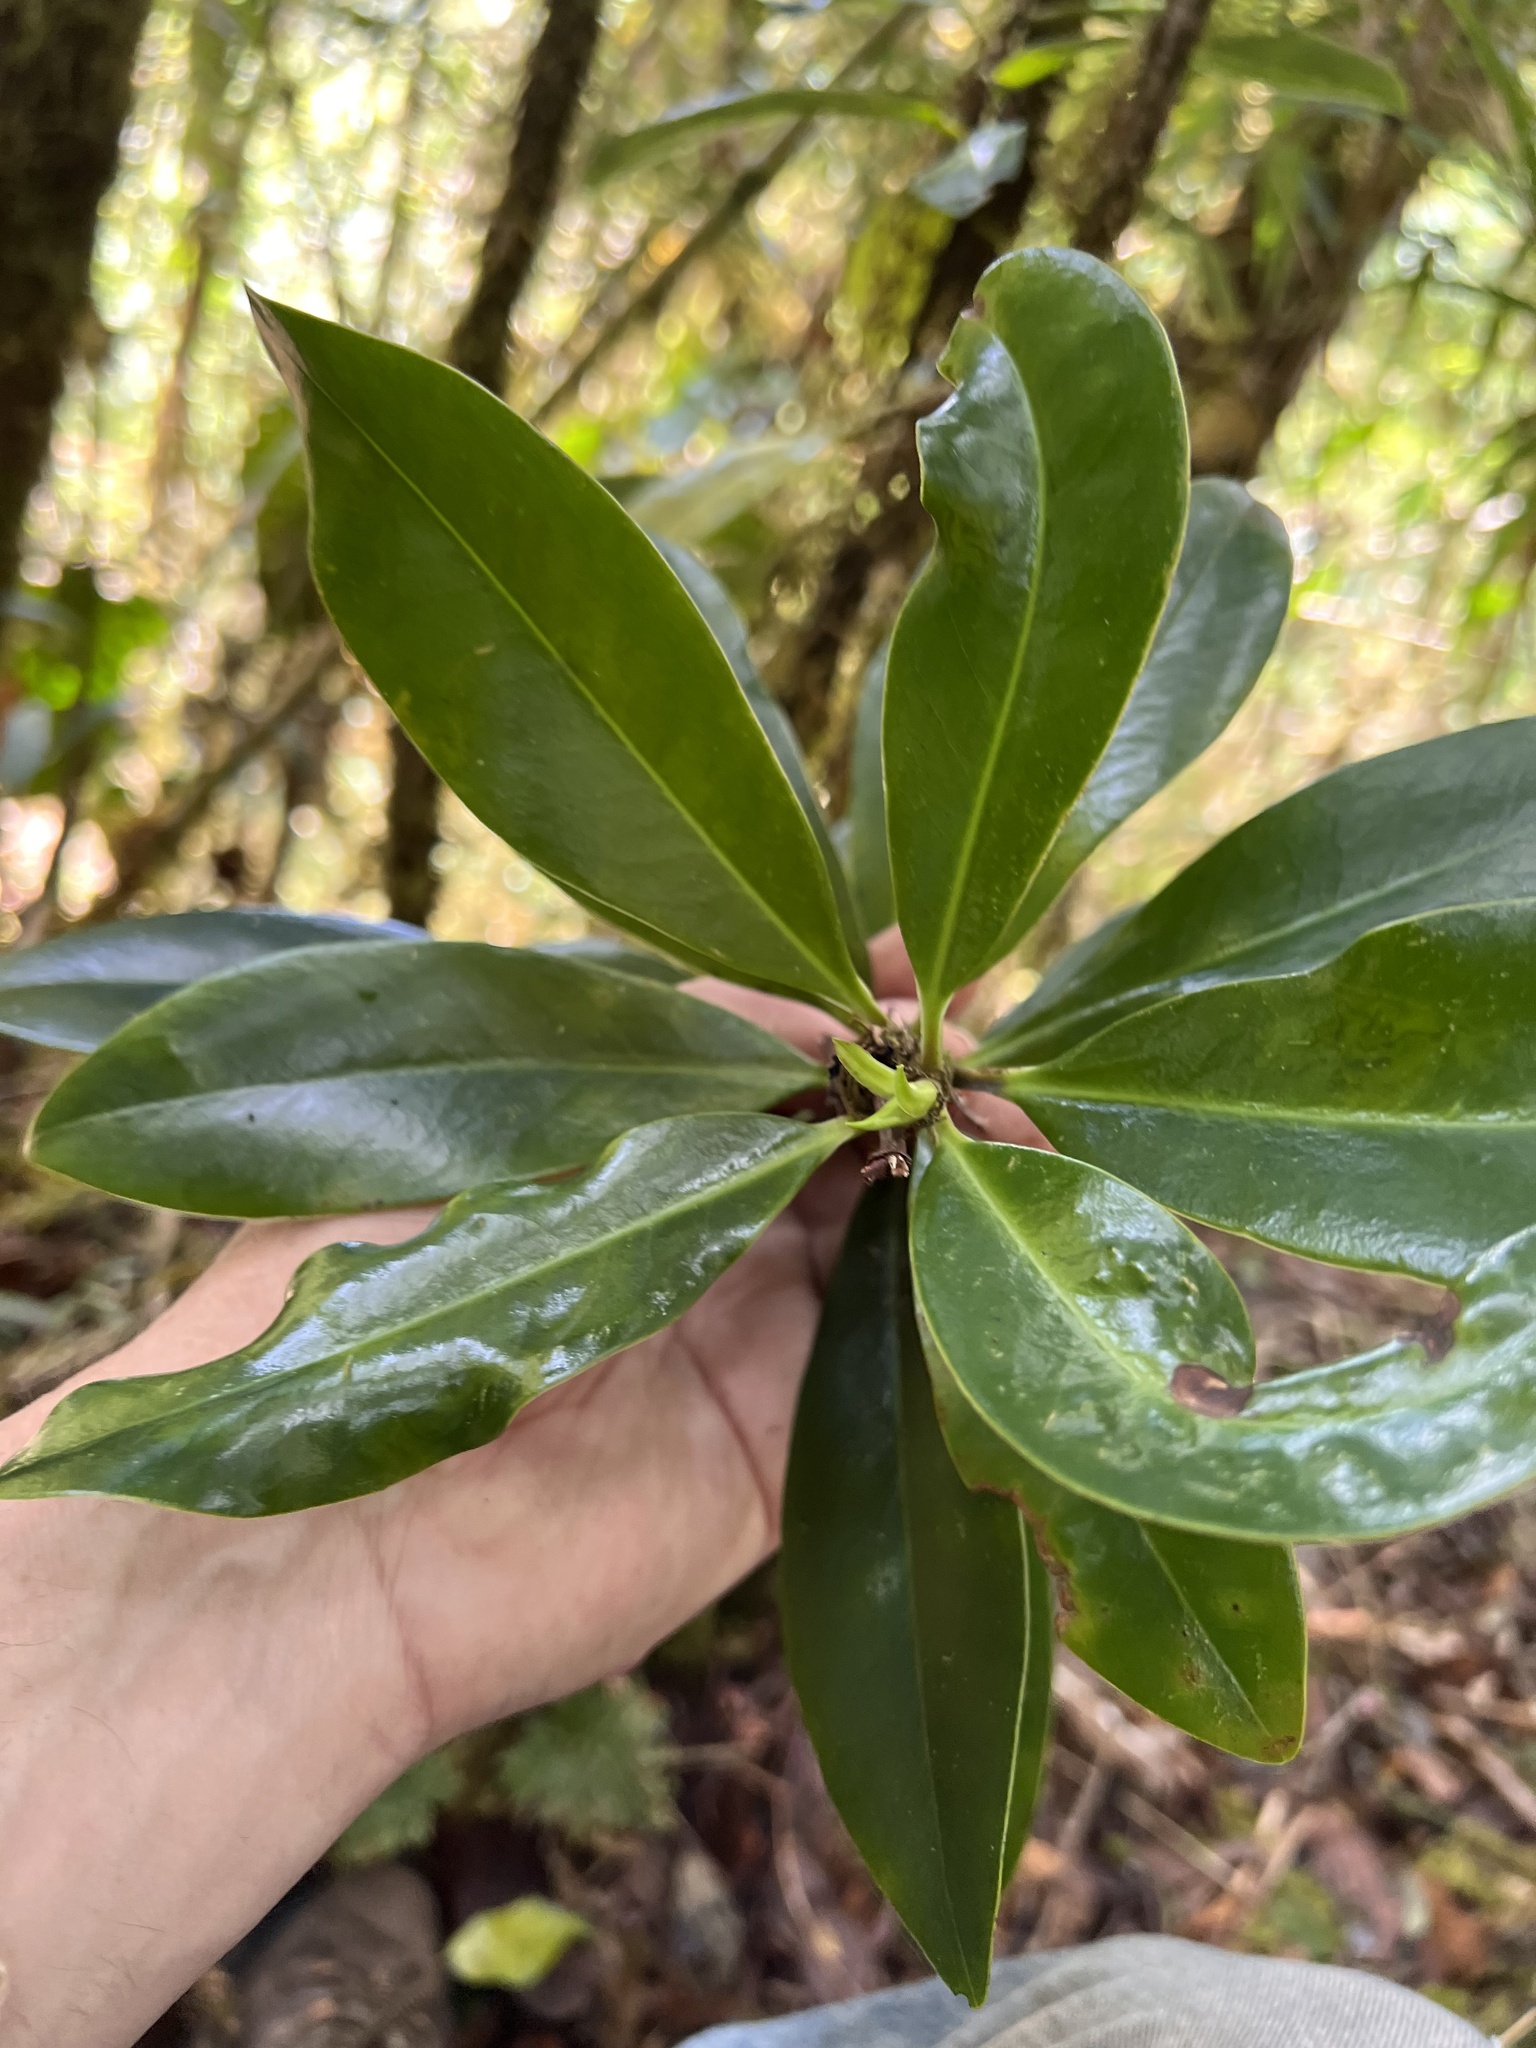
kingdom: Plantae
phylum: Tracheophyta
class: Magnoliopsida
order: Canellales
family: Winteraceae
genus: Drimys
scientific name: Drimys granadensis
